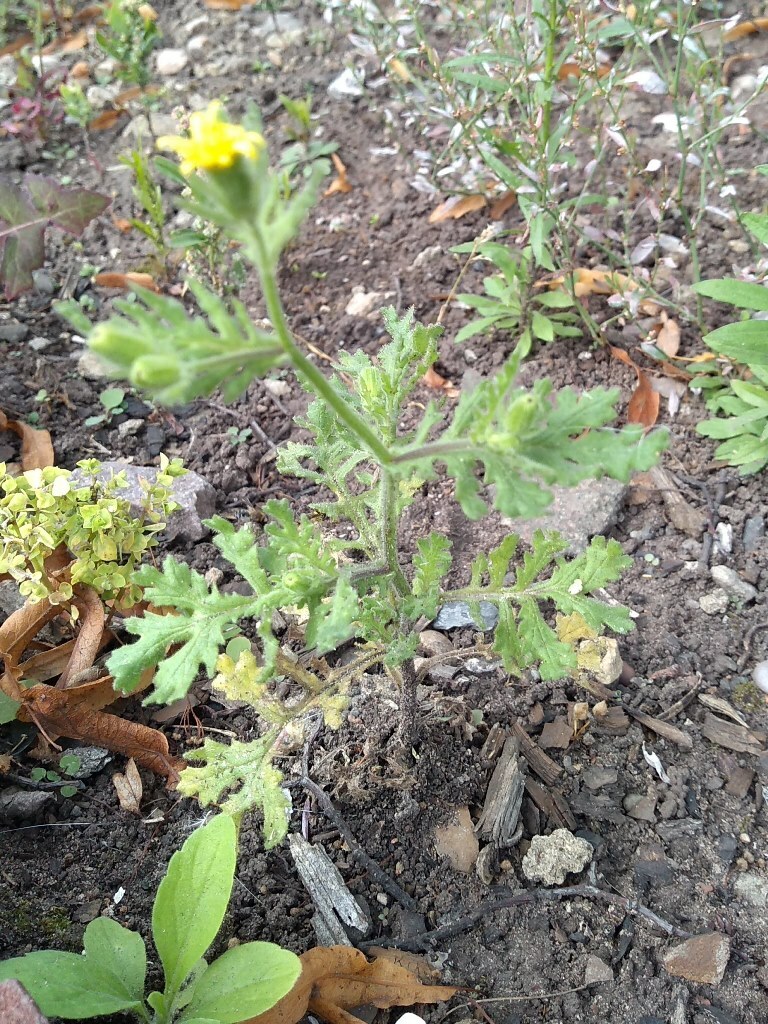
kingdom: Plantae
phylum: Tracheophyta
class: Magnoliopsida
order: Asterales
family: Asteraceae
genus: Senecio
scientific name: Senecio viscosus
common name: Sticky groundsel
